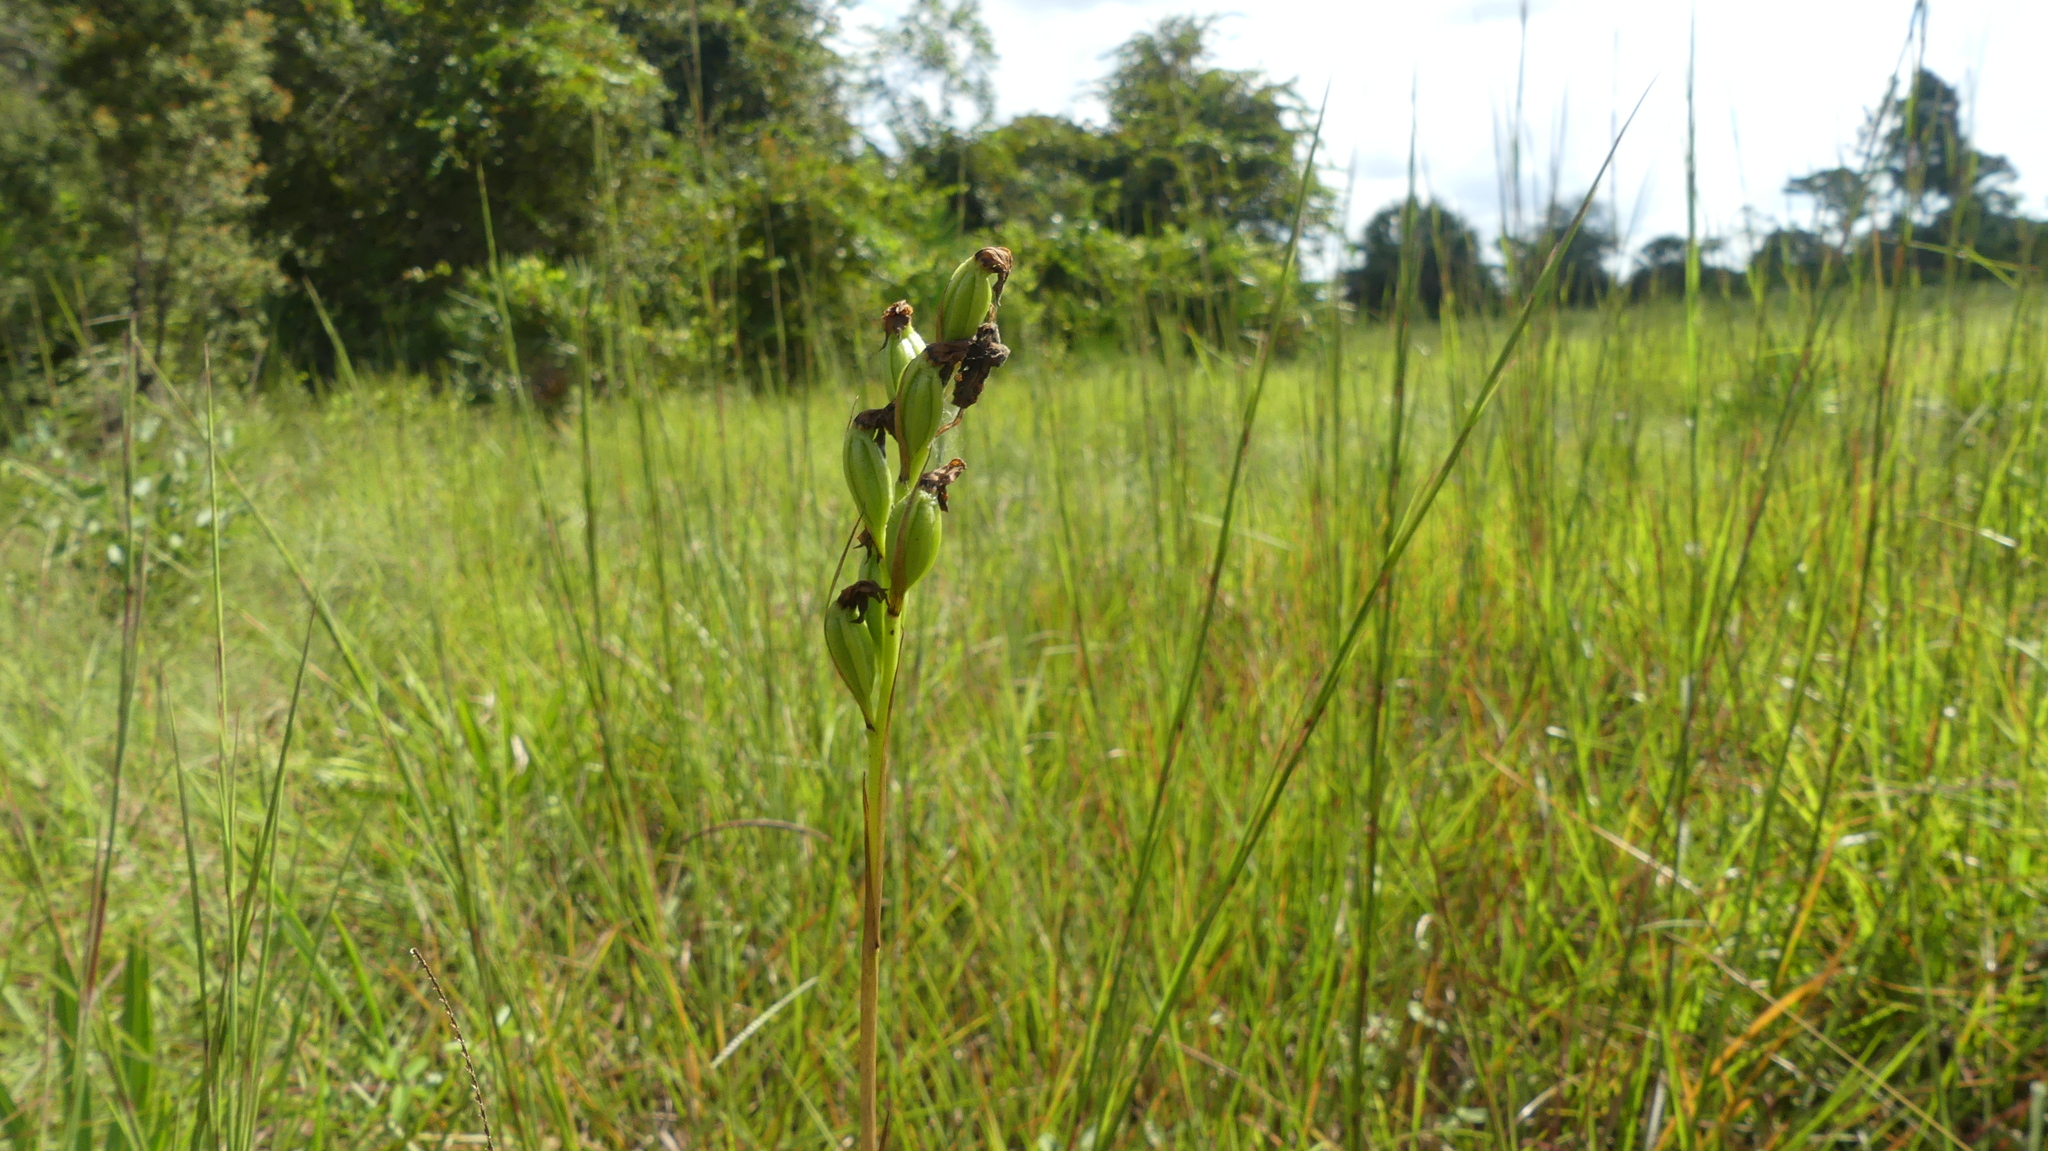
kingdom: Plantae
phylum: Tracheophyta
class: Liliopsida
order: Asparagales
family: Orchidaceae
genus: Eulophia
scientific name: Eulophia ecristata
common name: Giant orchid
